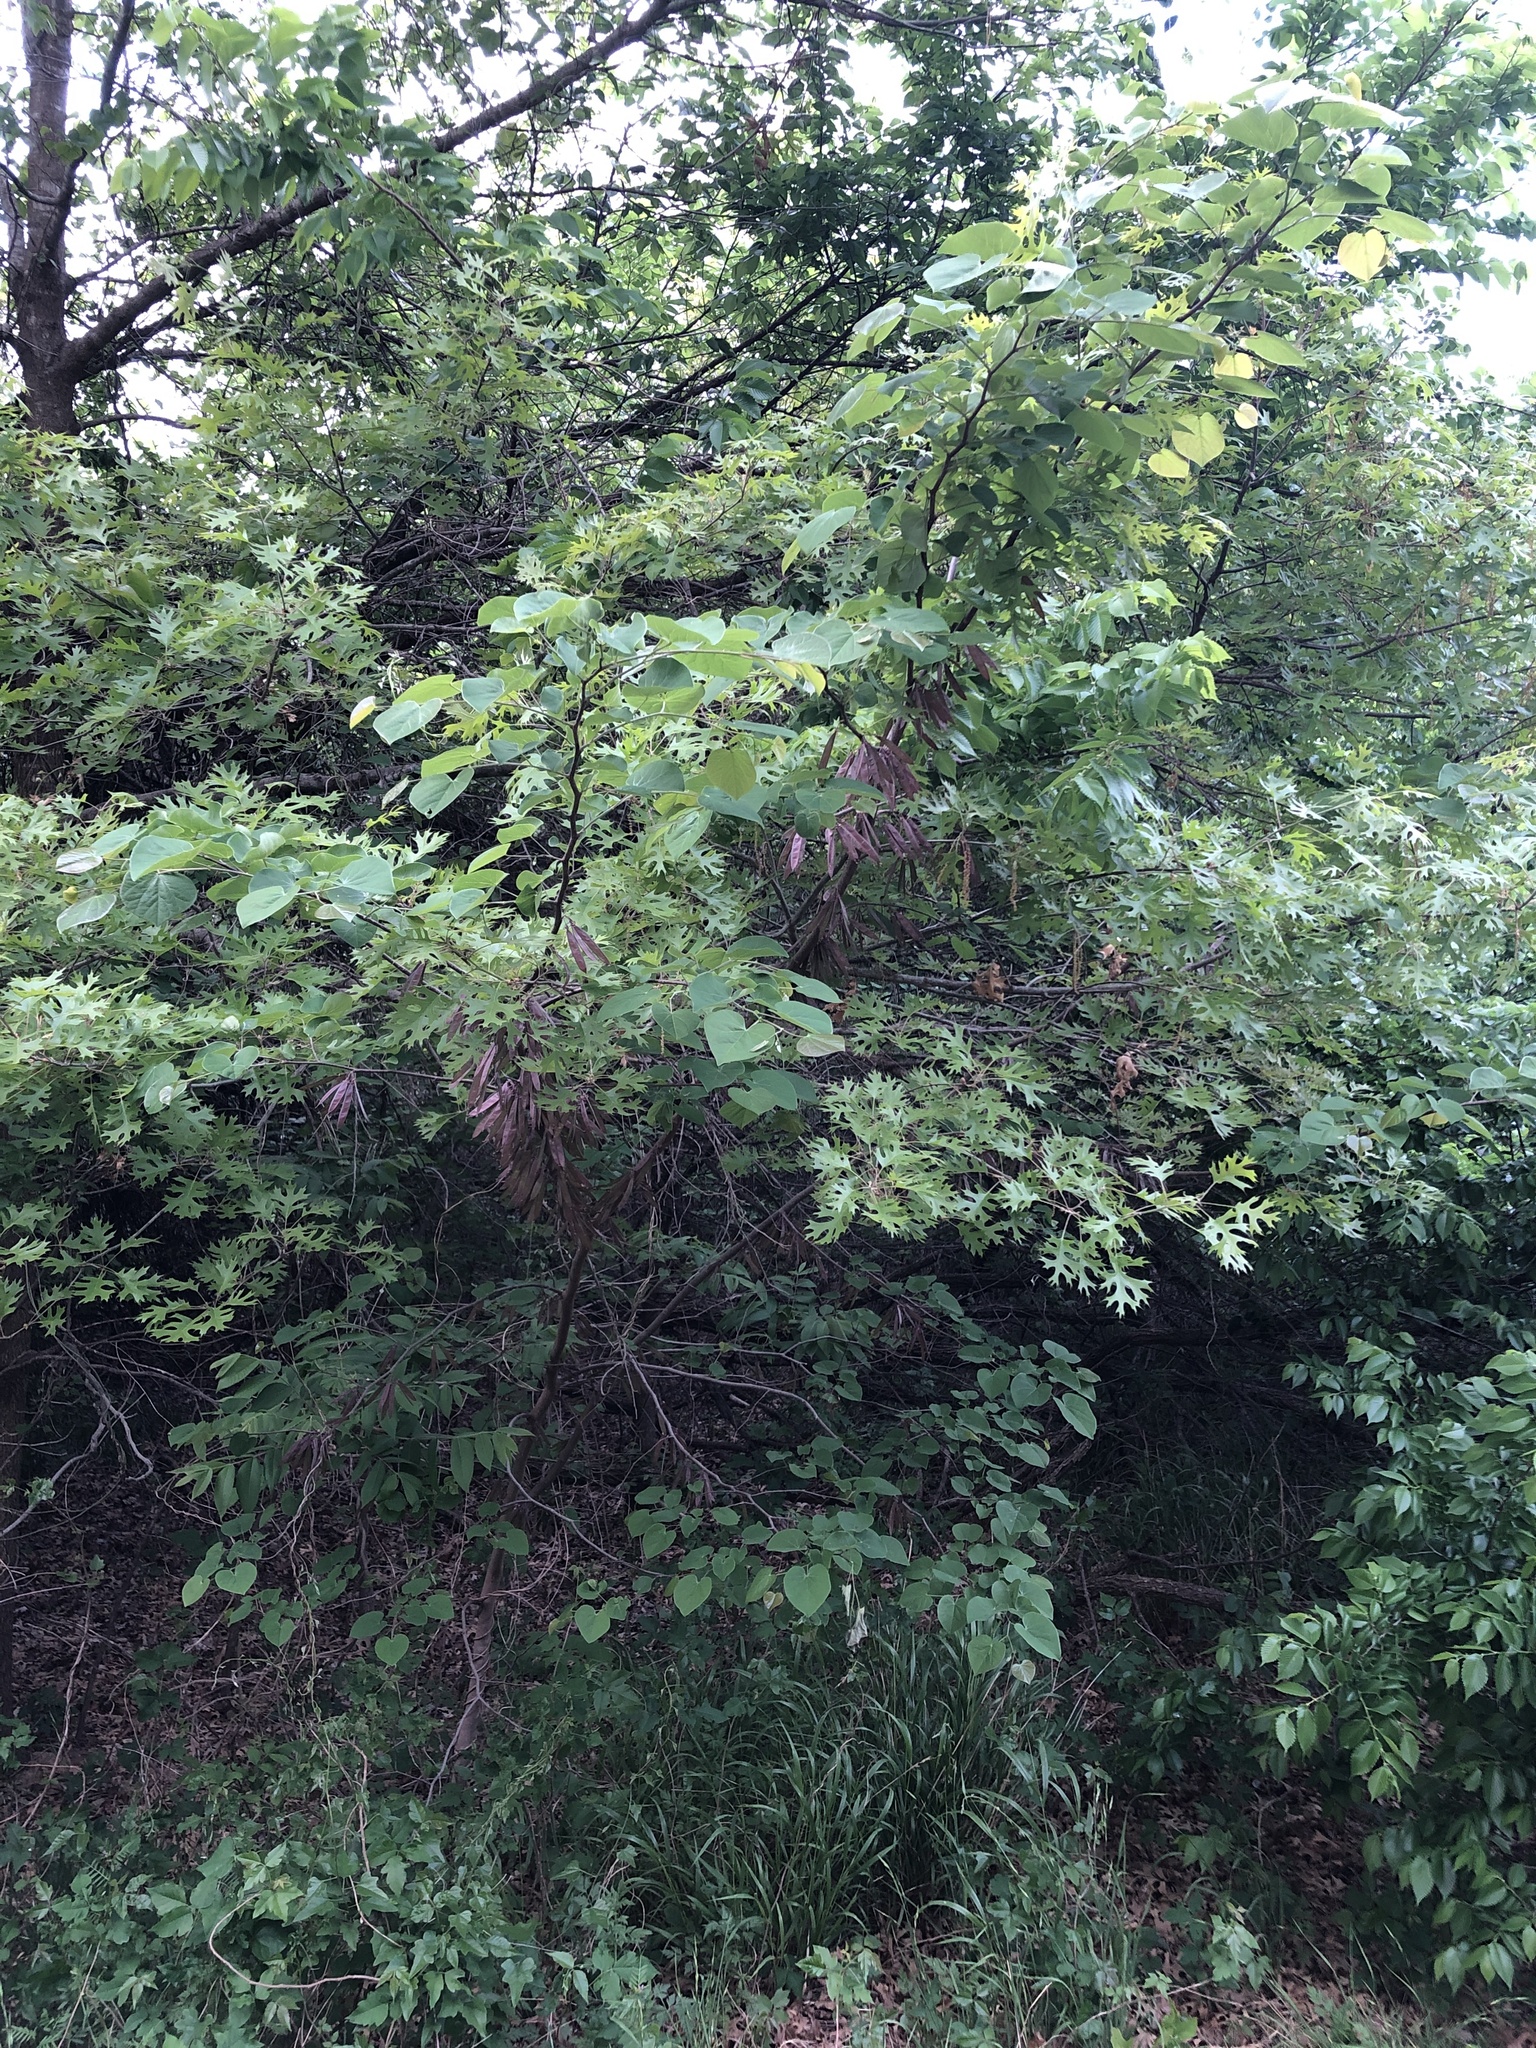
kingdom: Plantae
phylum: Tracheophyta
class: Magnoliopsida
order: Fabales
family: Fabaceae
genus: Cercis
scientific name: Cercis canadensis
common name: Eastern redbud
